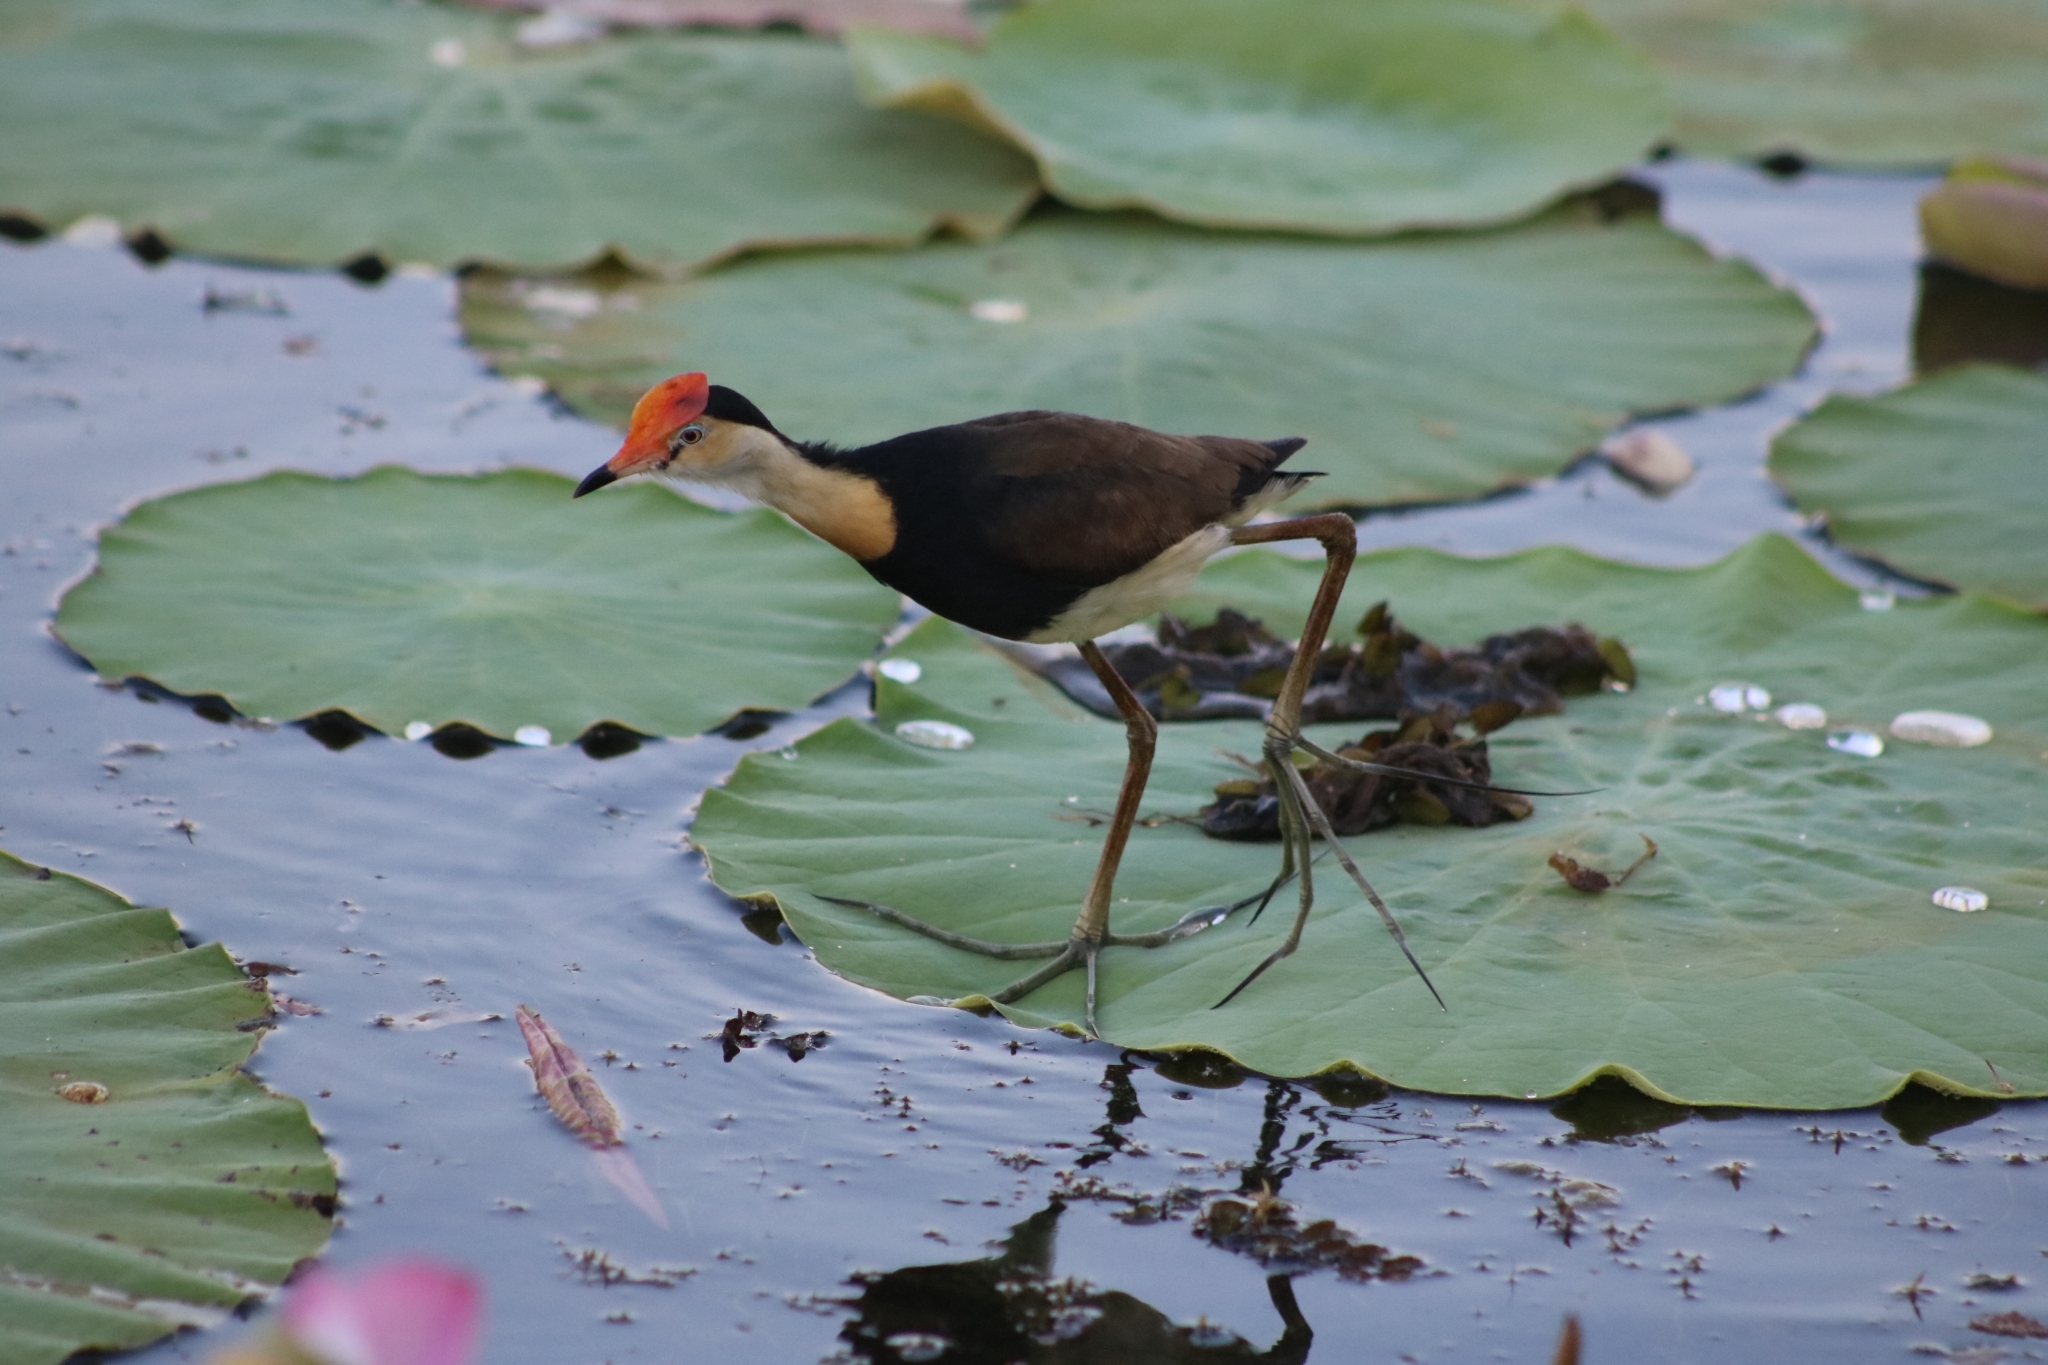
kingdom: Animalia
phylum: Chordata
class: Aves
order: Charadriiformes
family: Jacanidae
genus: Irediparra
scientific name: Irediparra gallinacea
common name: Comb-crested jacana
